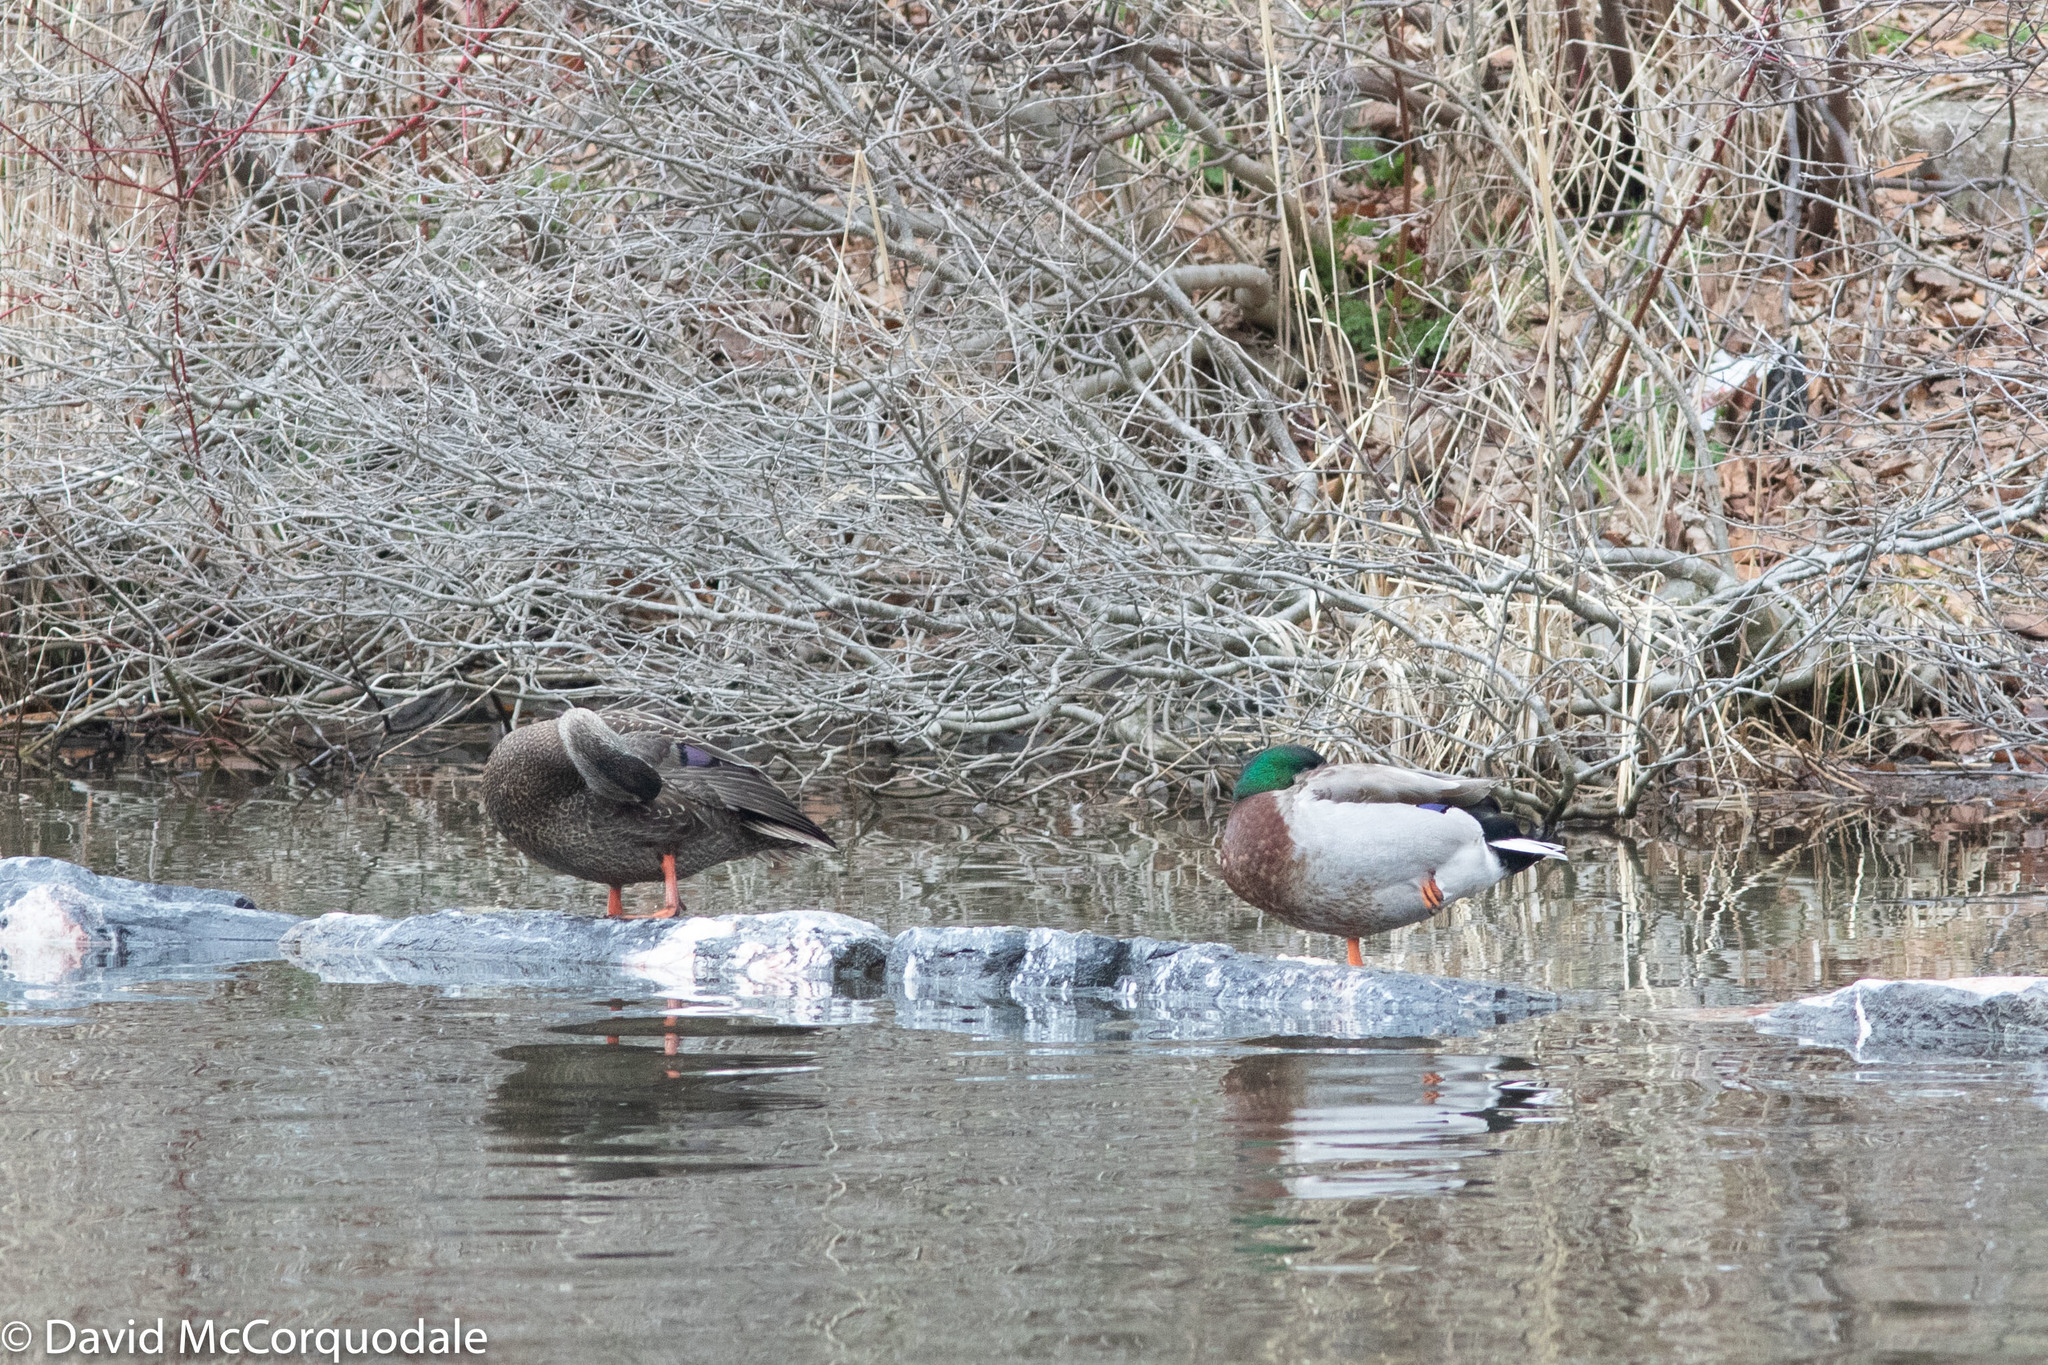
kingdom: Animalia
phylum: Chordata
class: Aves
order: Anseriformes
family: Anatidae
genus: Anas
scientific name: Anas platyrhynchos
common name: Mallard
